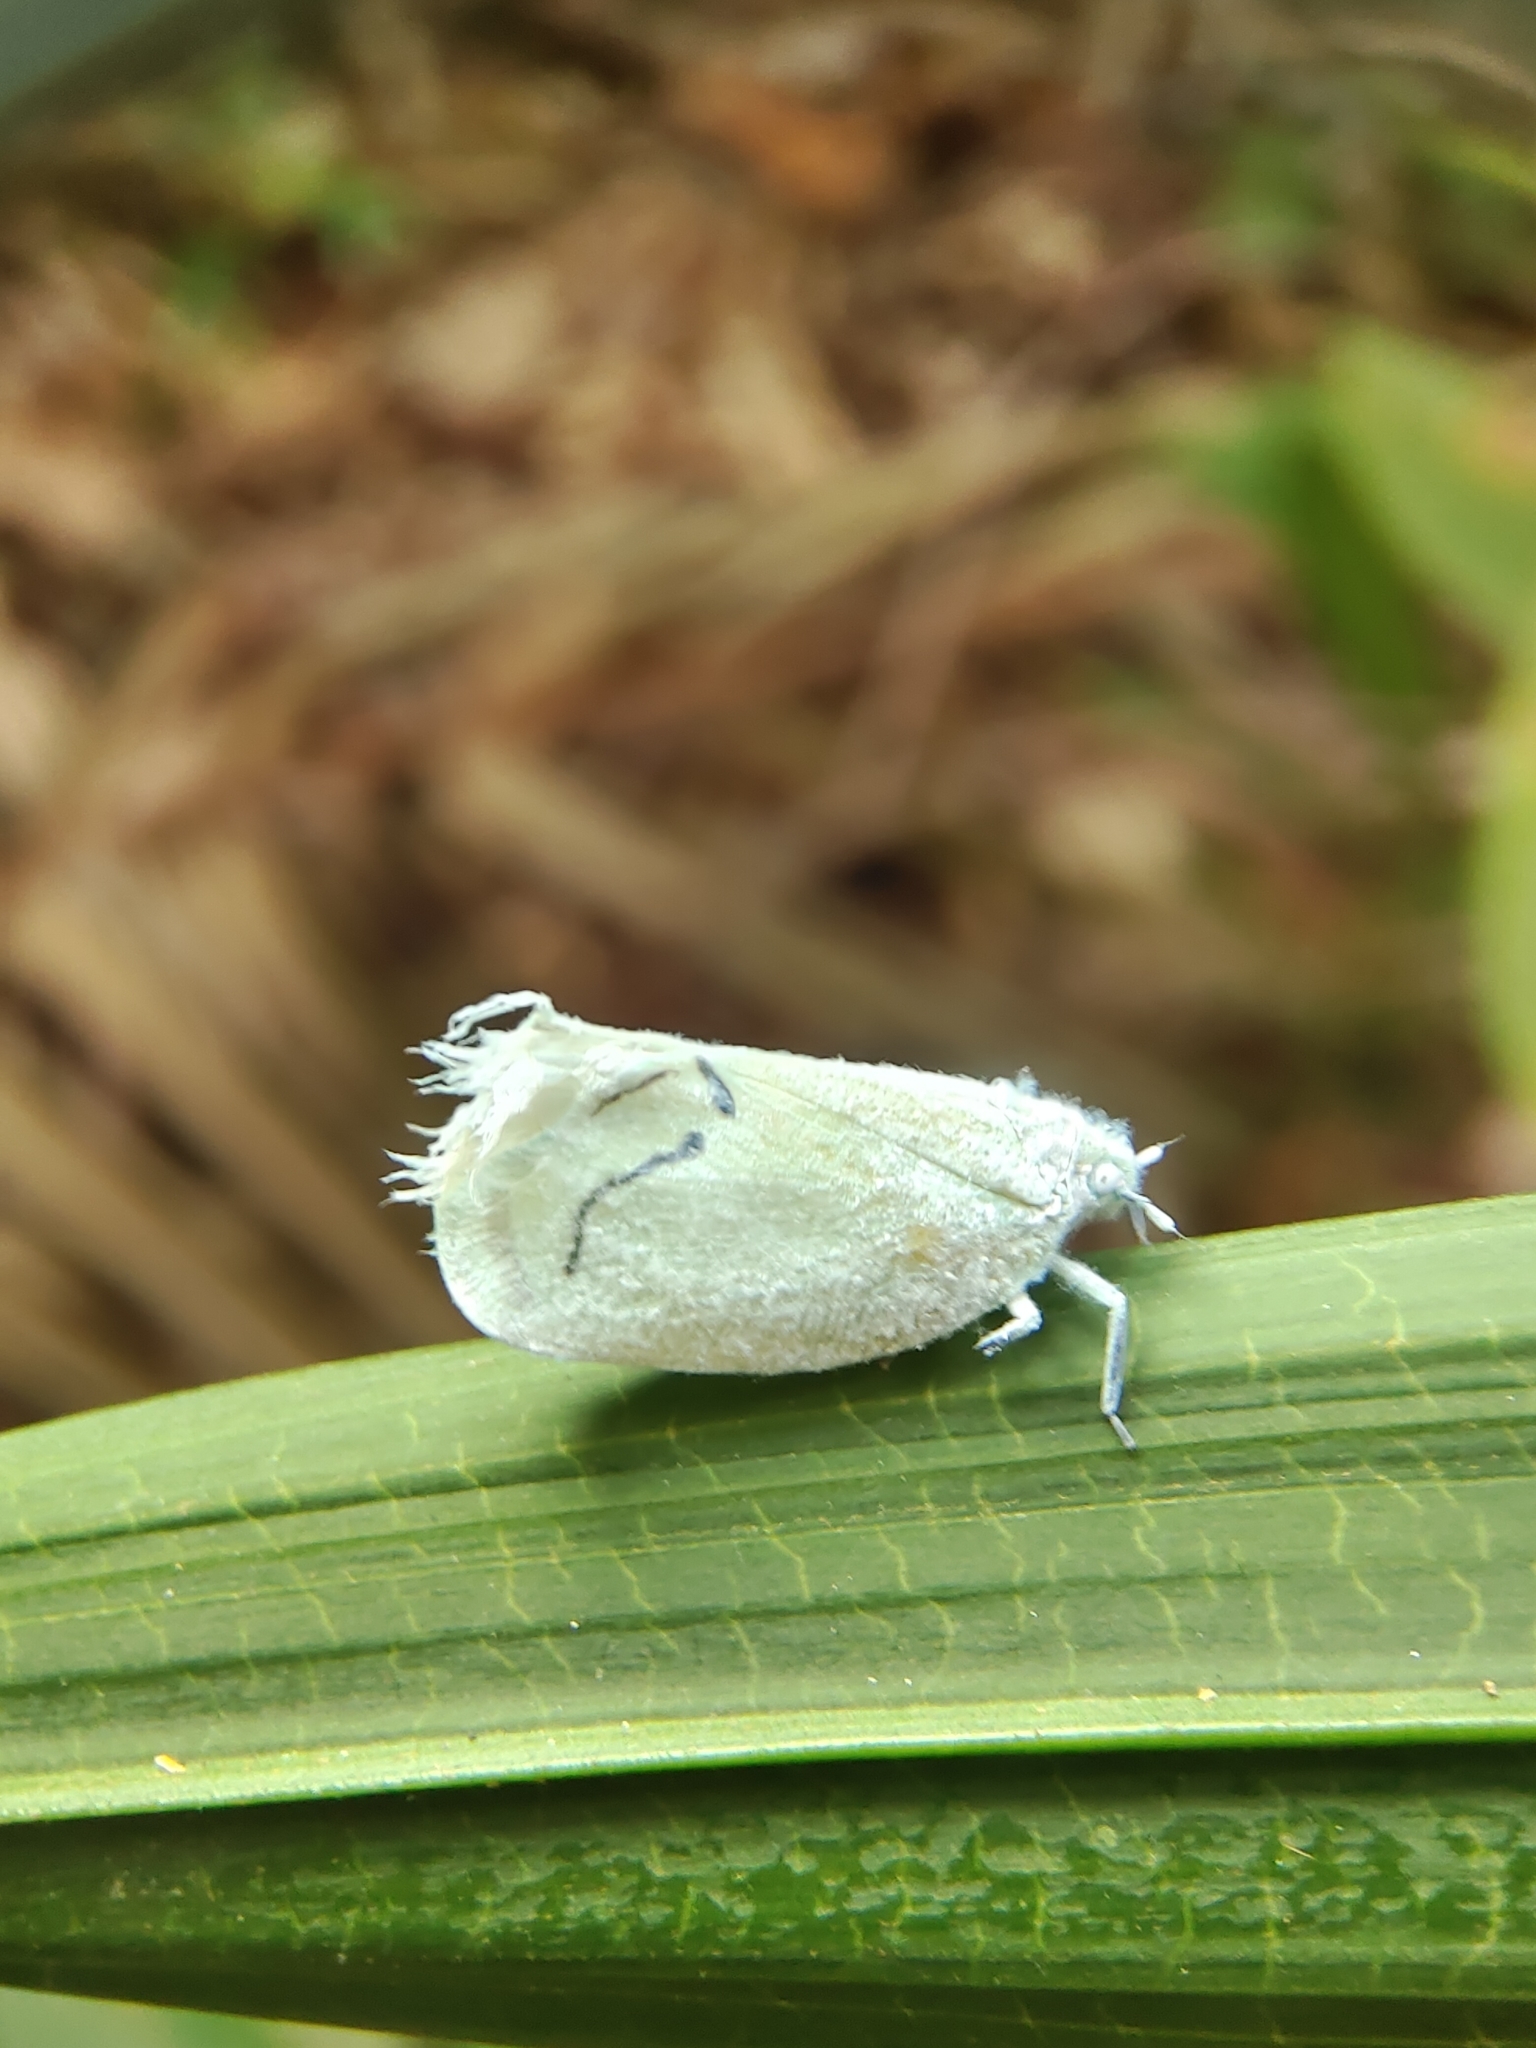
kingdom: Animalia
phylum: Arthropoda
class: Insecta
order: Hemiptera
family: Flatidae
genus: Cerynia
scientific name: Cerynia albata
